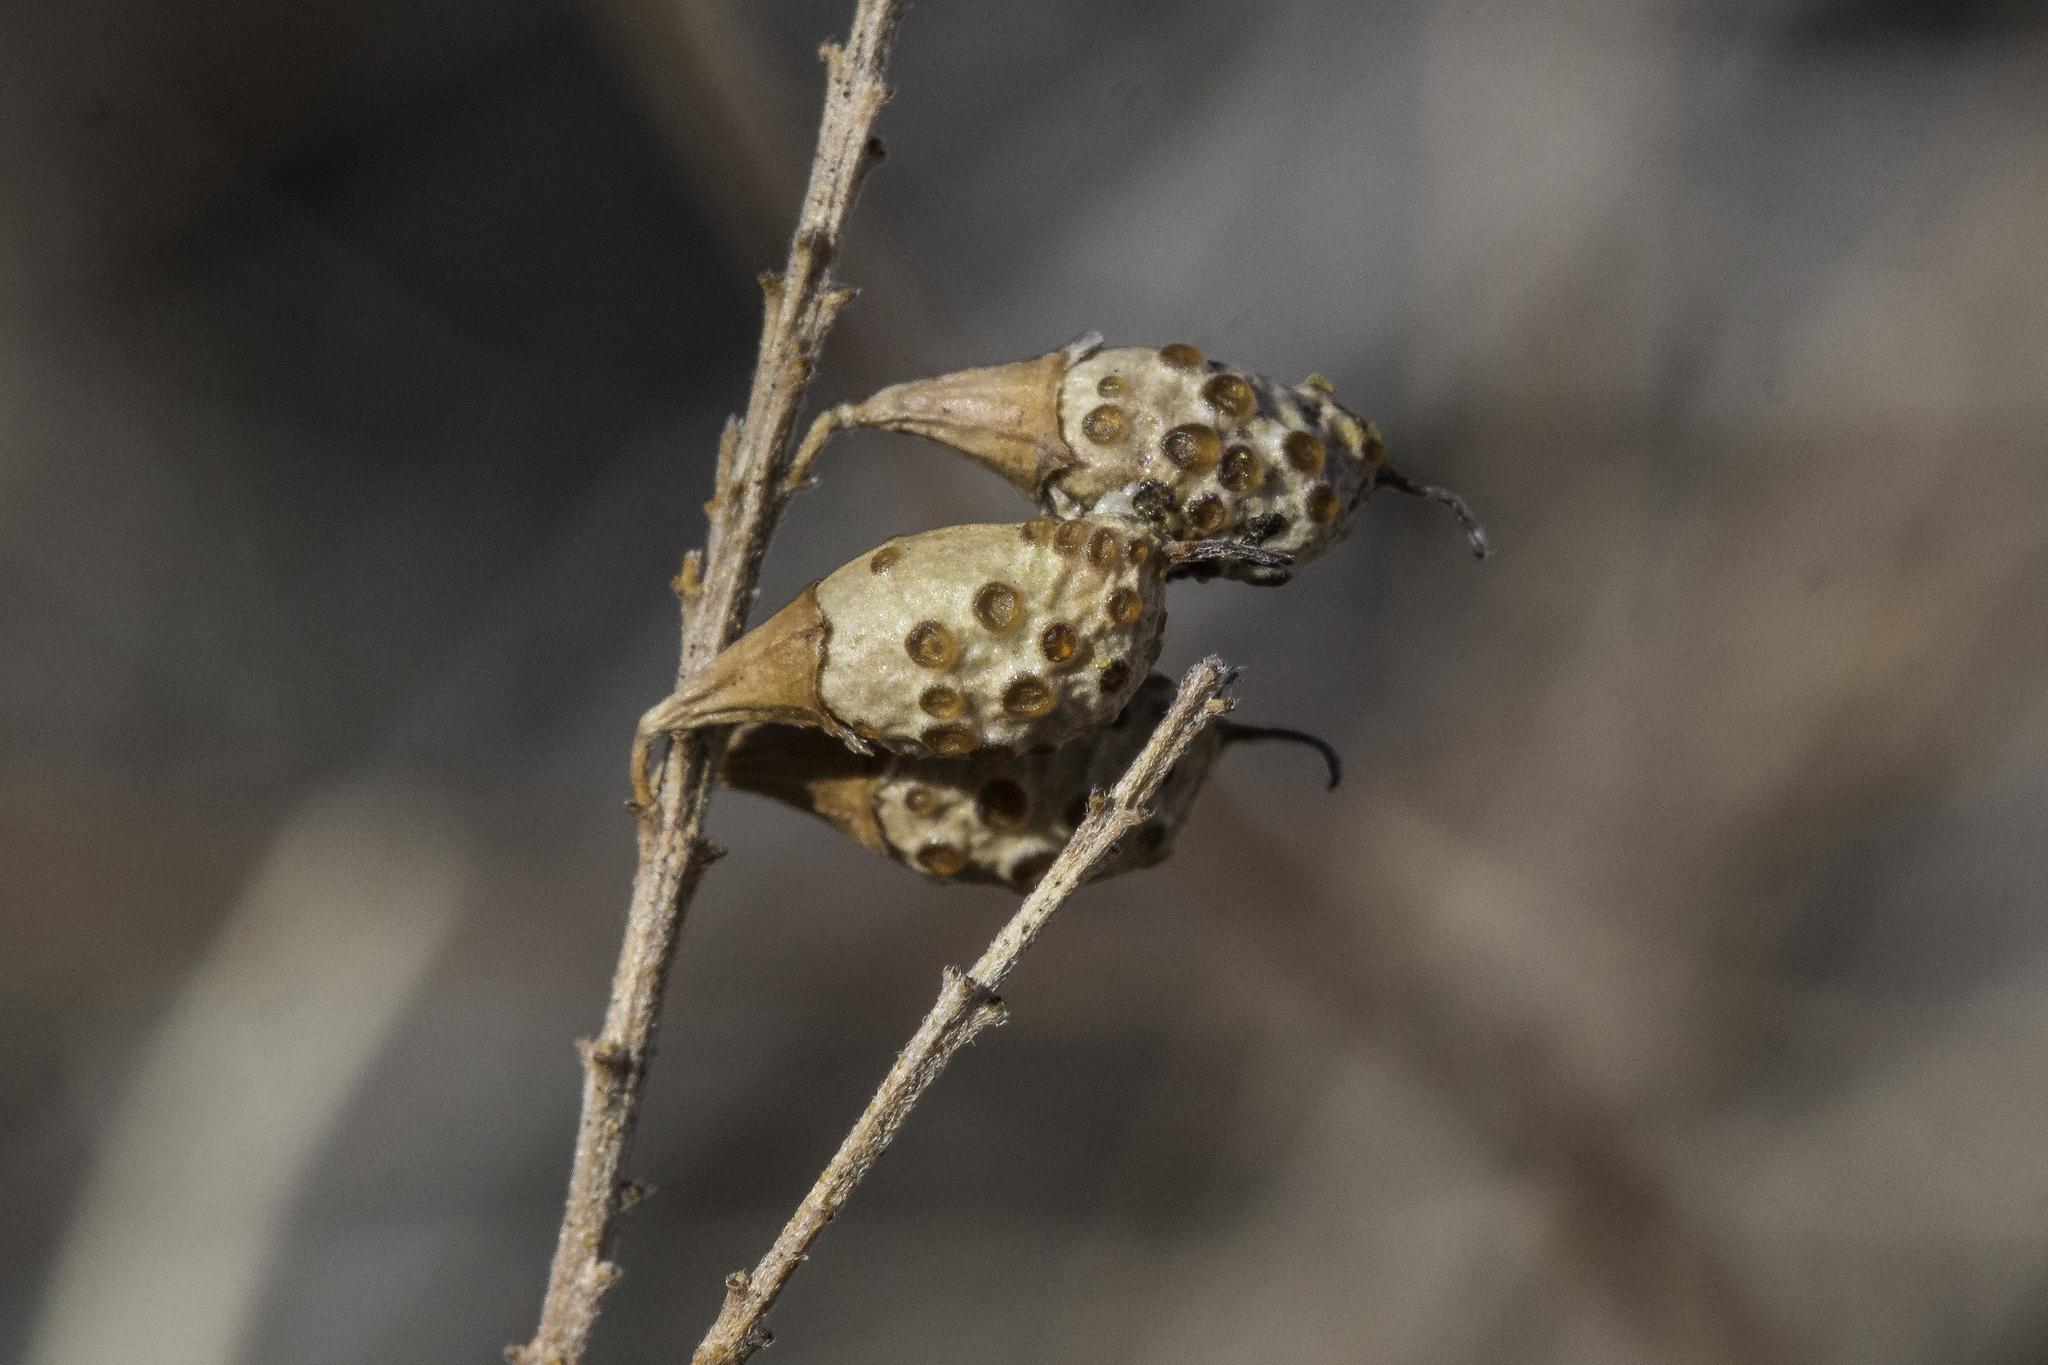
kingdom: Plantae
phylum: Tracheophyta
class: Magnoliopsida
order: Fabales
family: Fabaceae
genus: Parryella
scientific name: Parryella filifolia
